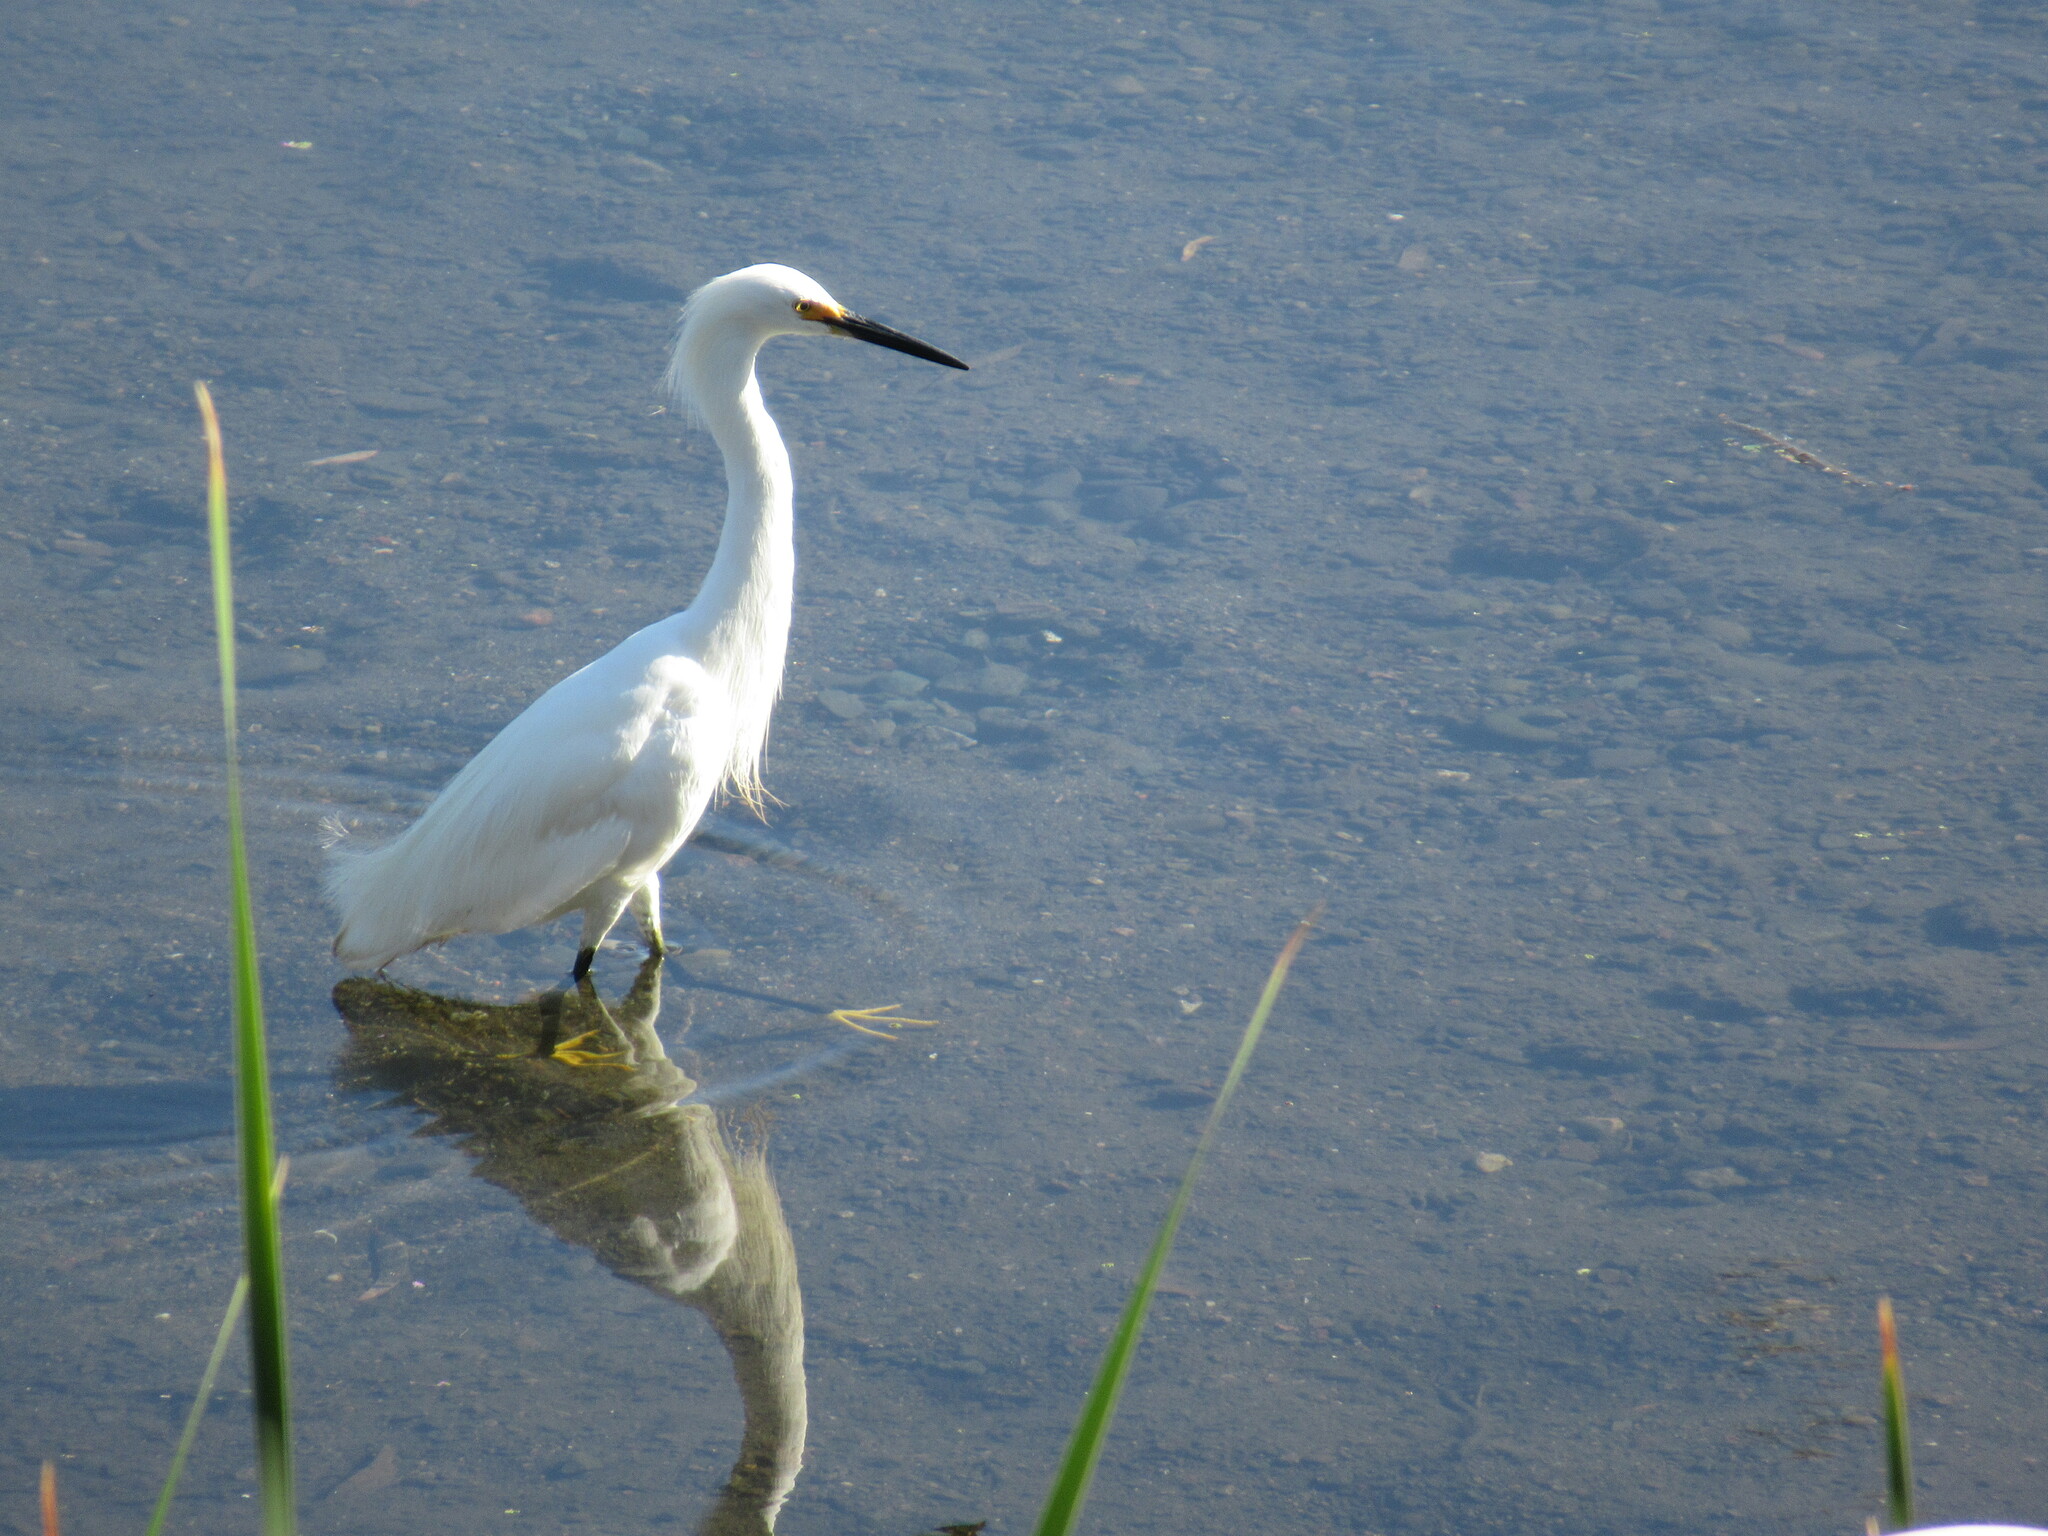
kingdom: Animalia
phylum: Chordata
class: Aves
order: Pelecaniformes
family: Ardeidae
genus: Egretta
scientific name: Egretta thula
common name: Snowy egret
